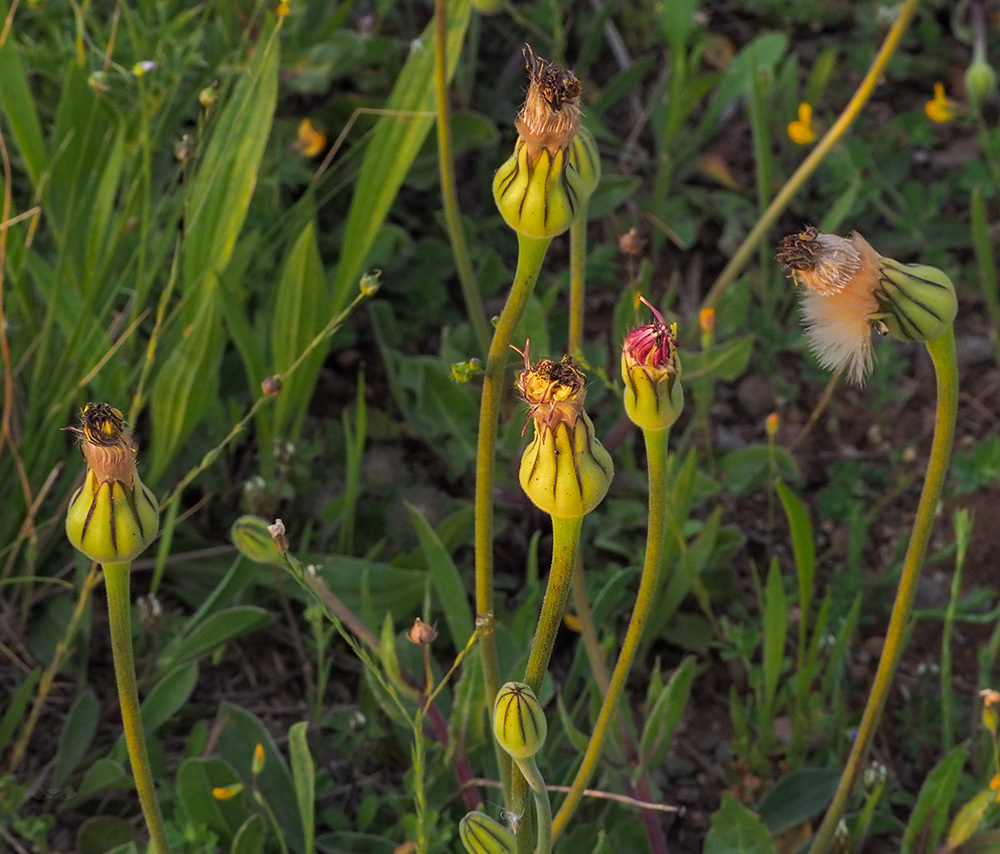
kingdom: Plantae
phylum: Tracheophyta
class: Magnoliopsida
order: Asterales
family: Asteraceae
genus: Urospermum
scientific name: Urospermum dalechampii
